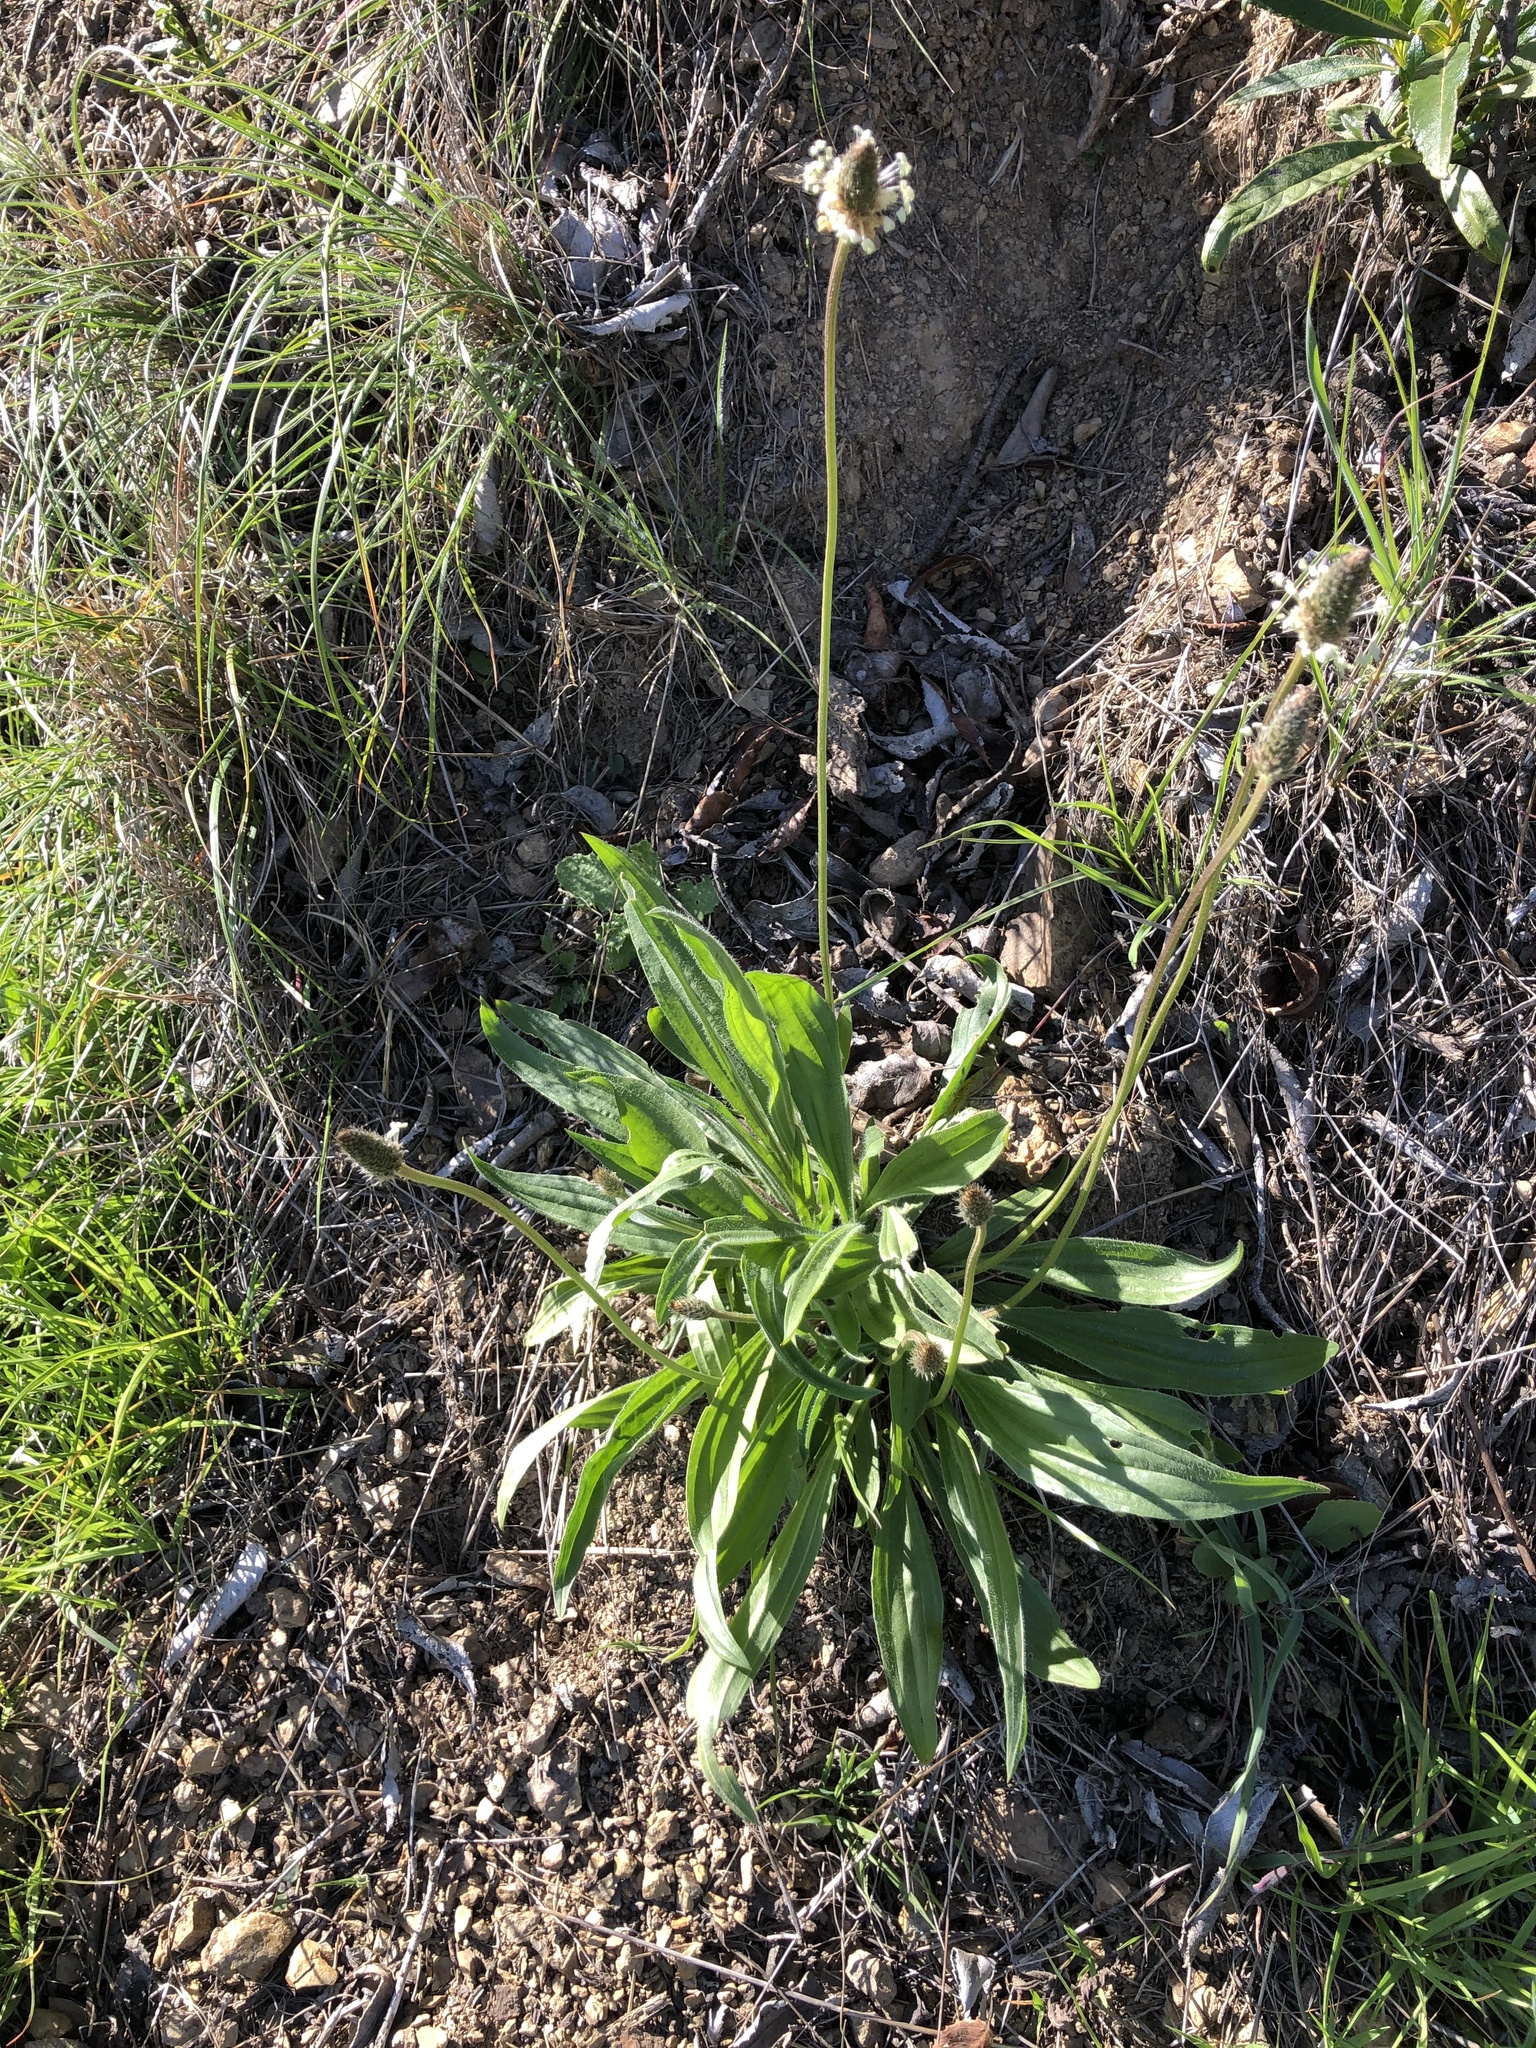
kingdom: Plantae
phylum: Tracheophyta
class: Magnoliopsida
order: Lamiales
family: Plantaginaceae
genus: Plantago
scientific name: Plantago lanceolata
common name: Ribwort plantain
